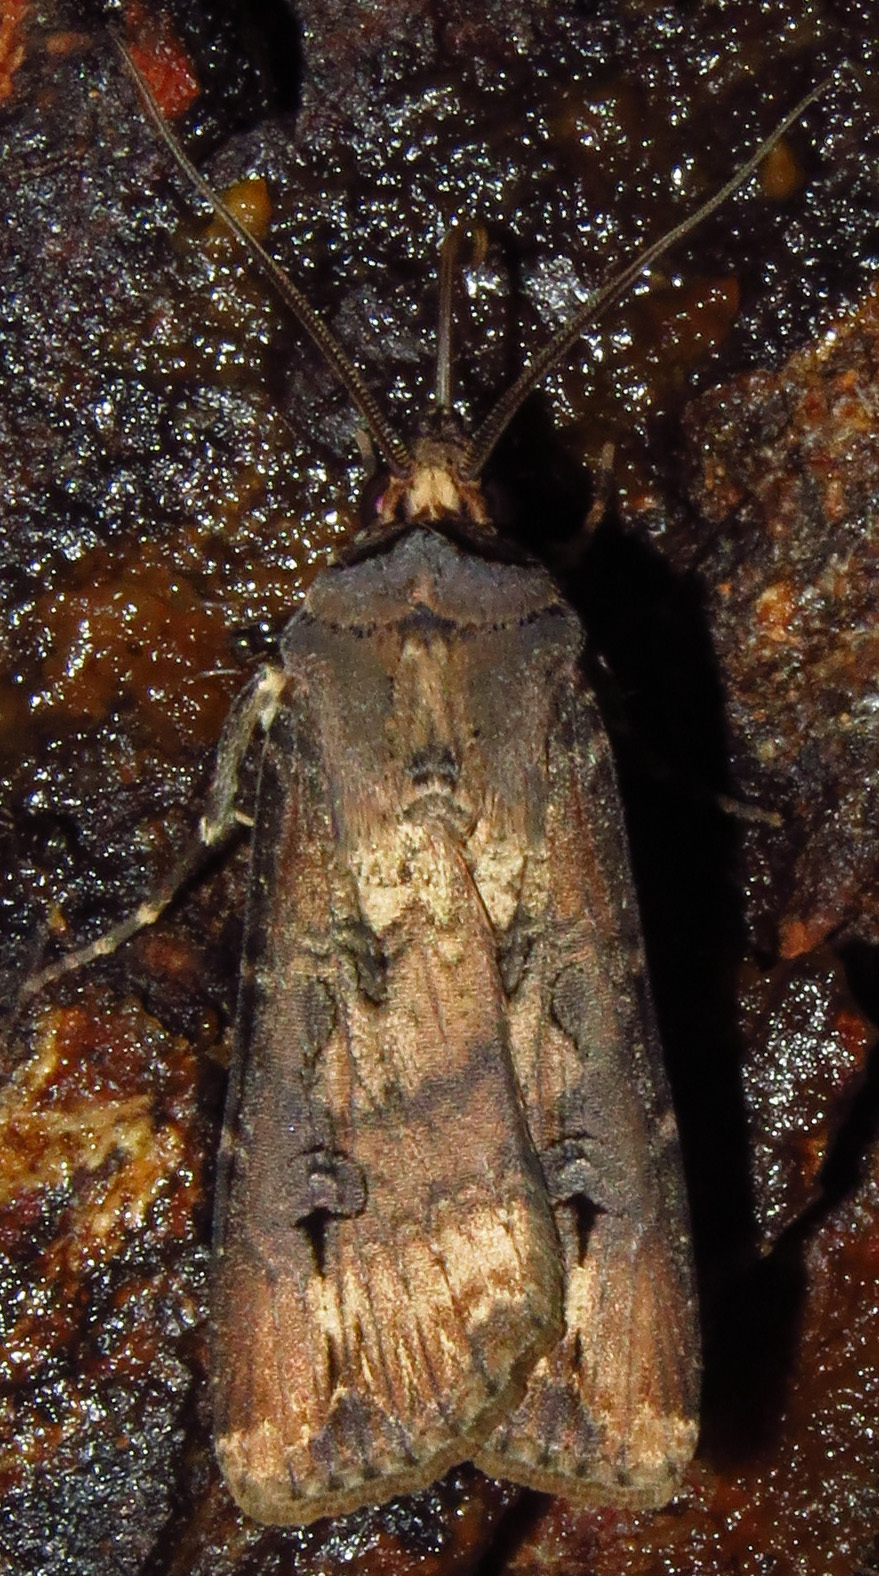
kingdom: Animalia
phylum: Arthropoda
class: Insecta
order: Lepidoptera
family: Noctuidae
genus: Agrotis
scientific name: Agrotis ipsilon
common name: Dark sword-grass
